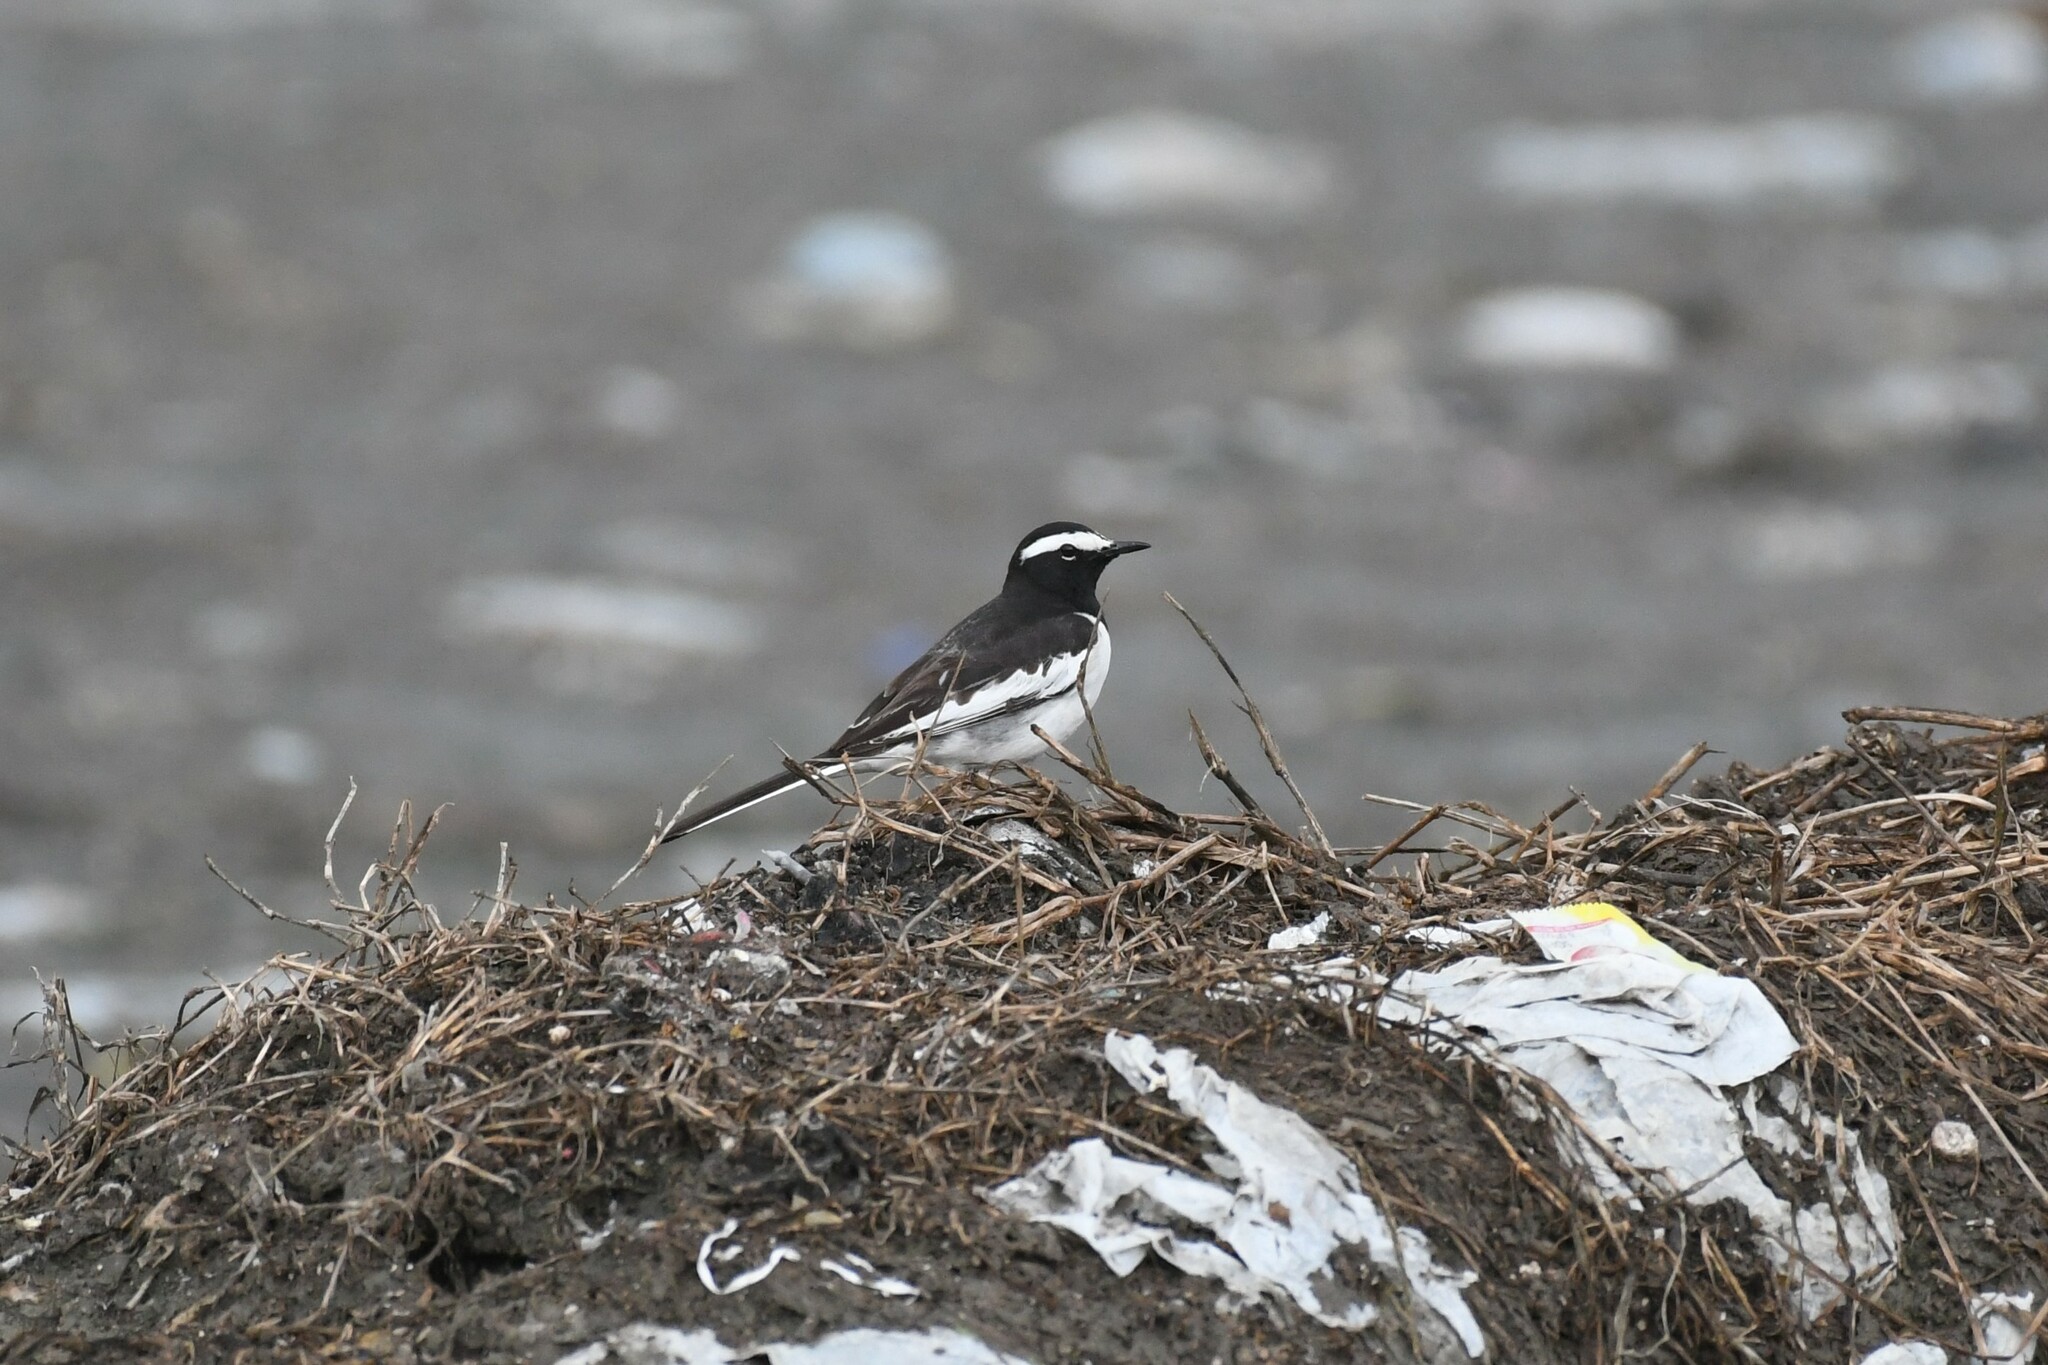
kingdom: Animalia
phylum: Chordata
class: Aves
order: Passeriformes
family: Motacillidae
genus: Motacilla
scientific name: Motacilla maderaspatensis
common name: White-browed wagtail
